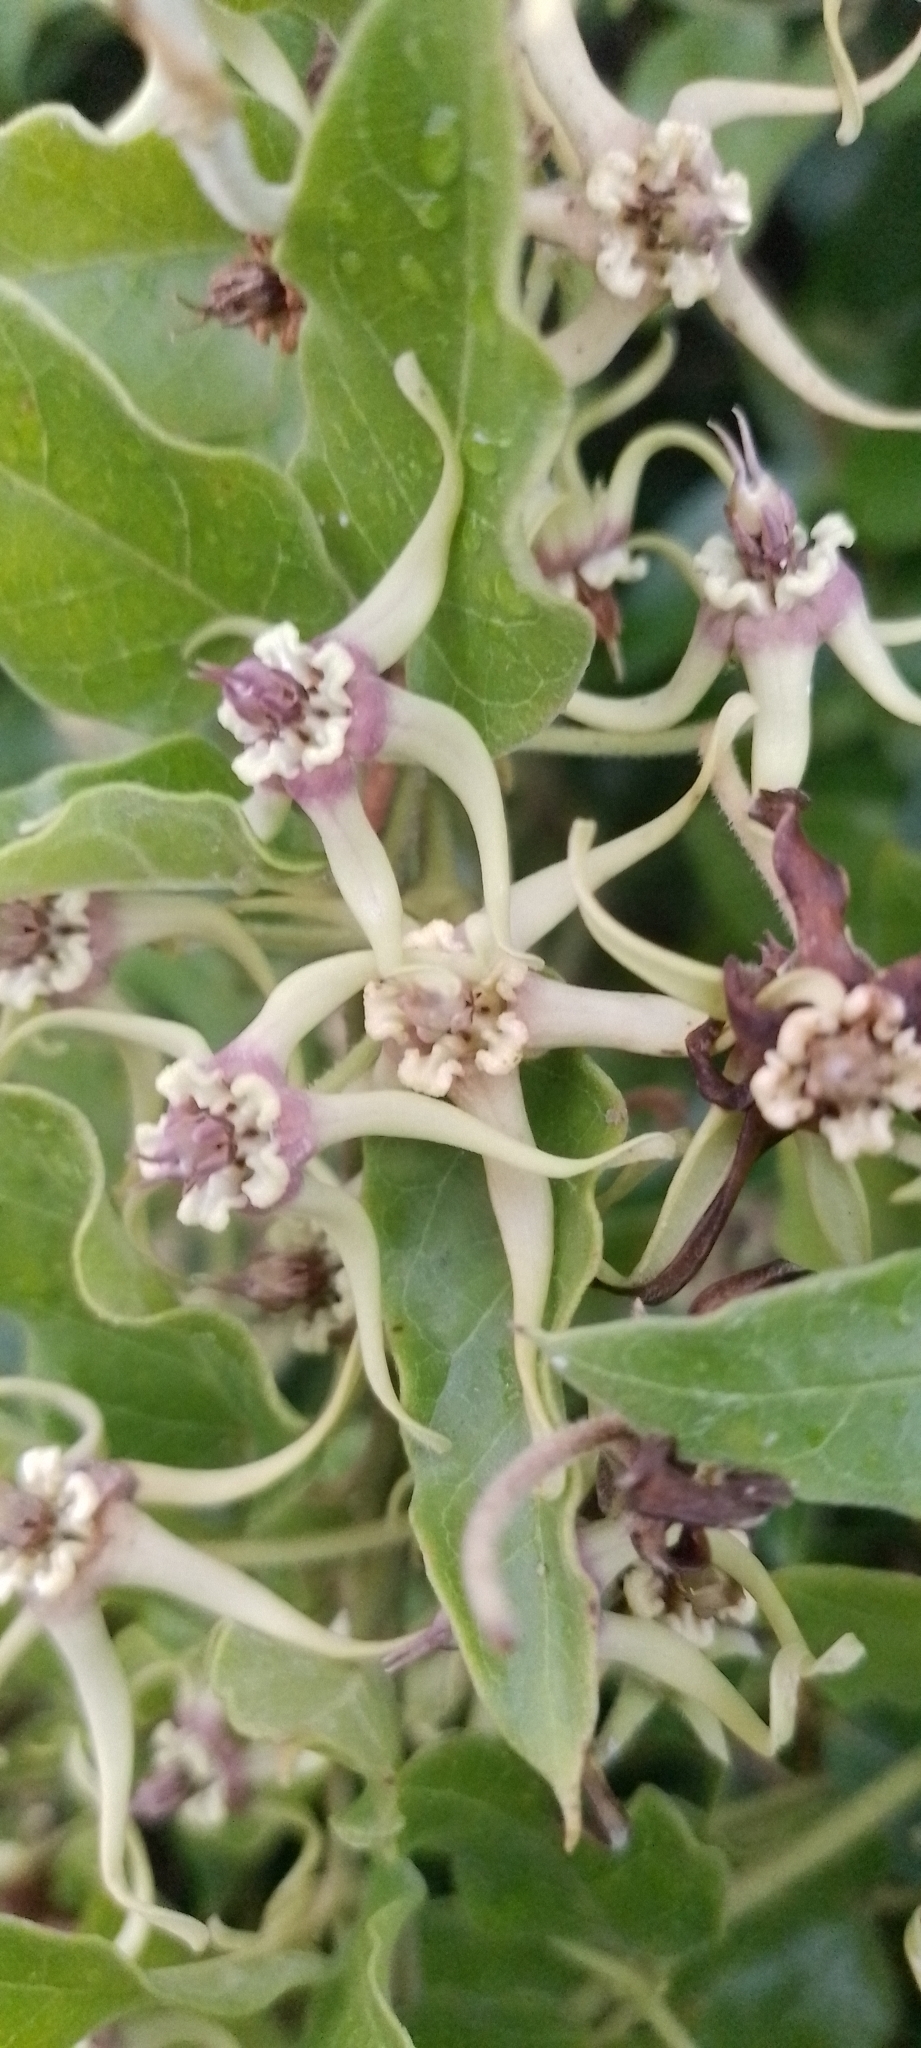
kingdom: Plantae
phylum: Tracheophyta
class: Magnoliopsida
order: Gentianales
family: Apocynaceae
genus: Oxypetalum
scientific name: Oxypetalum pannosum
